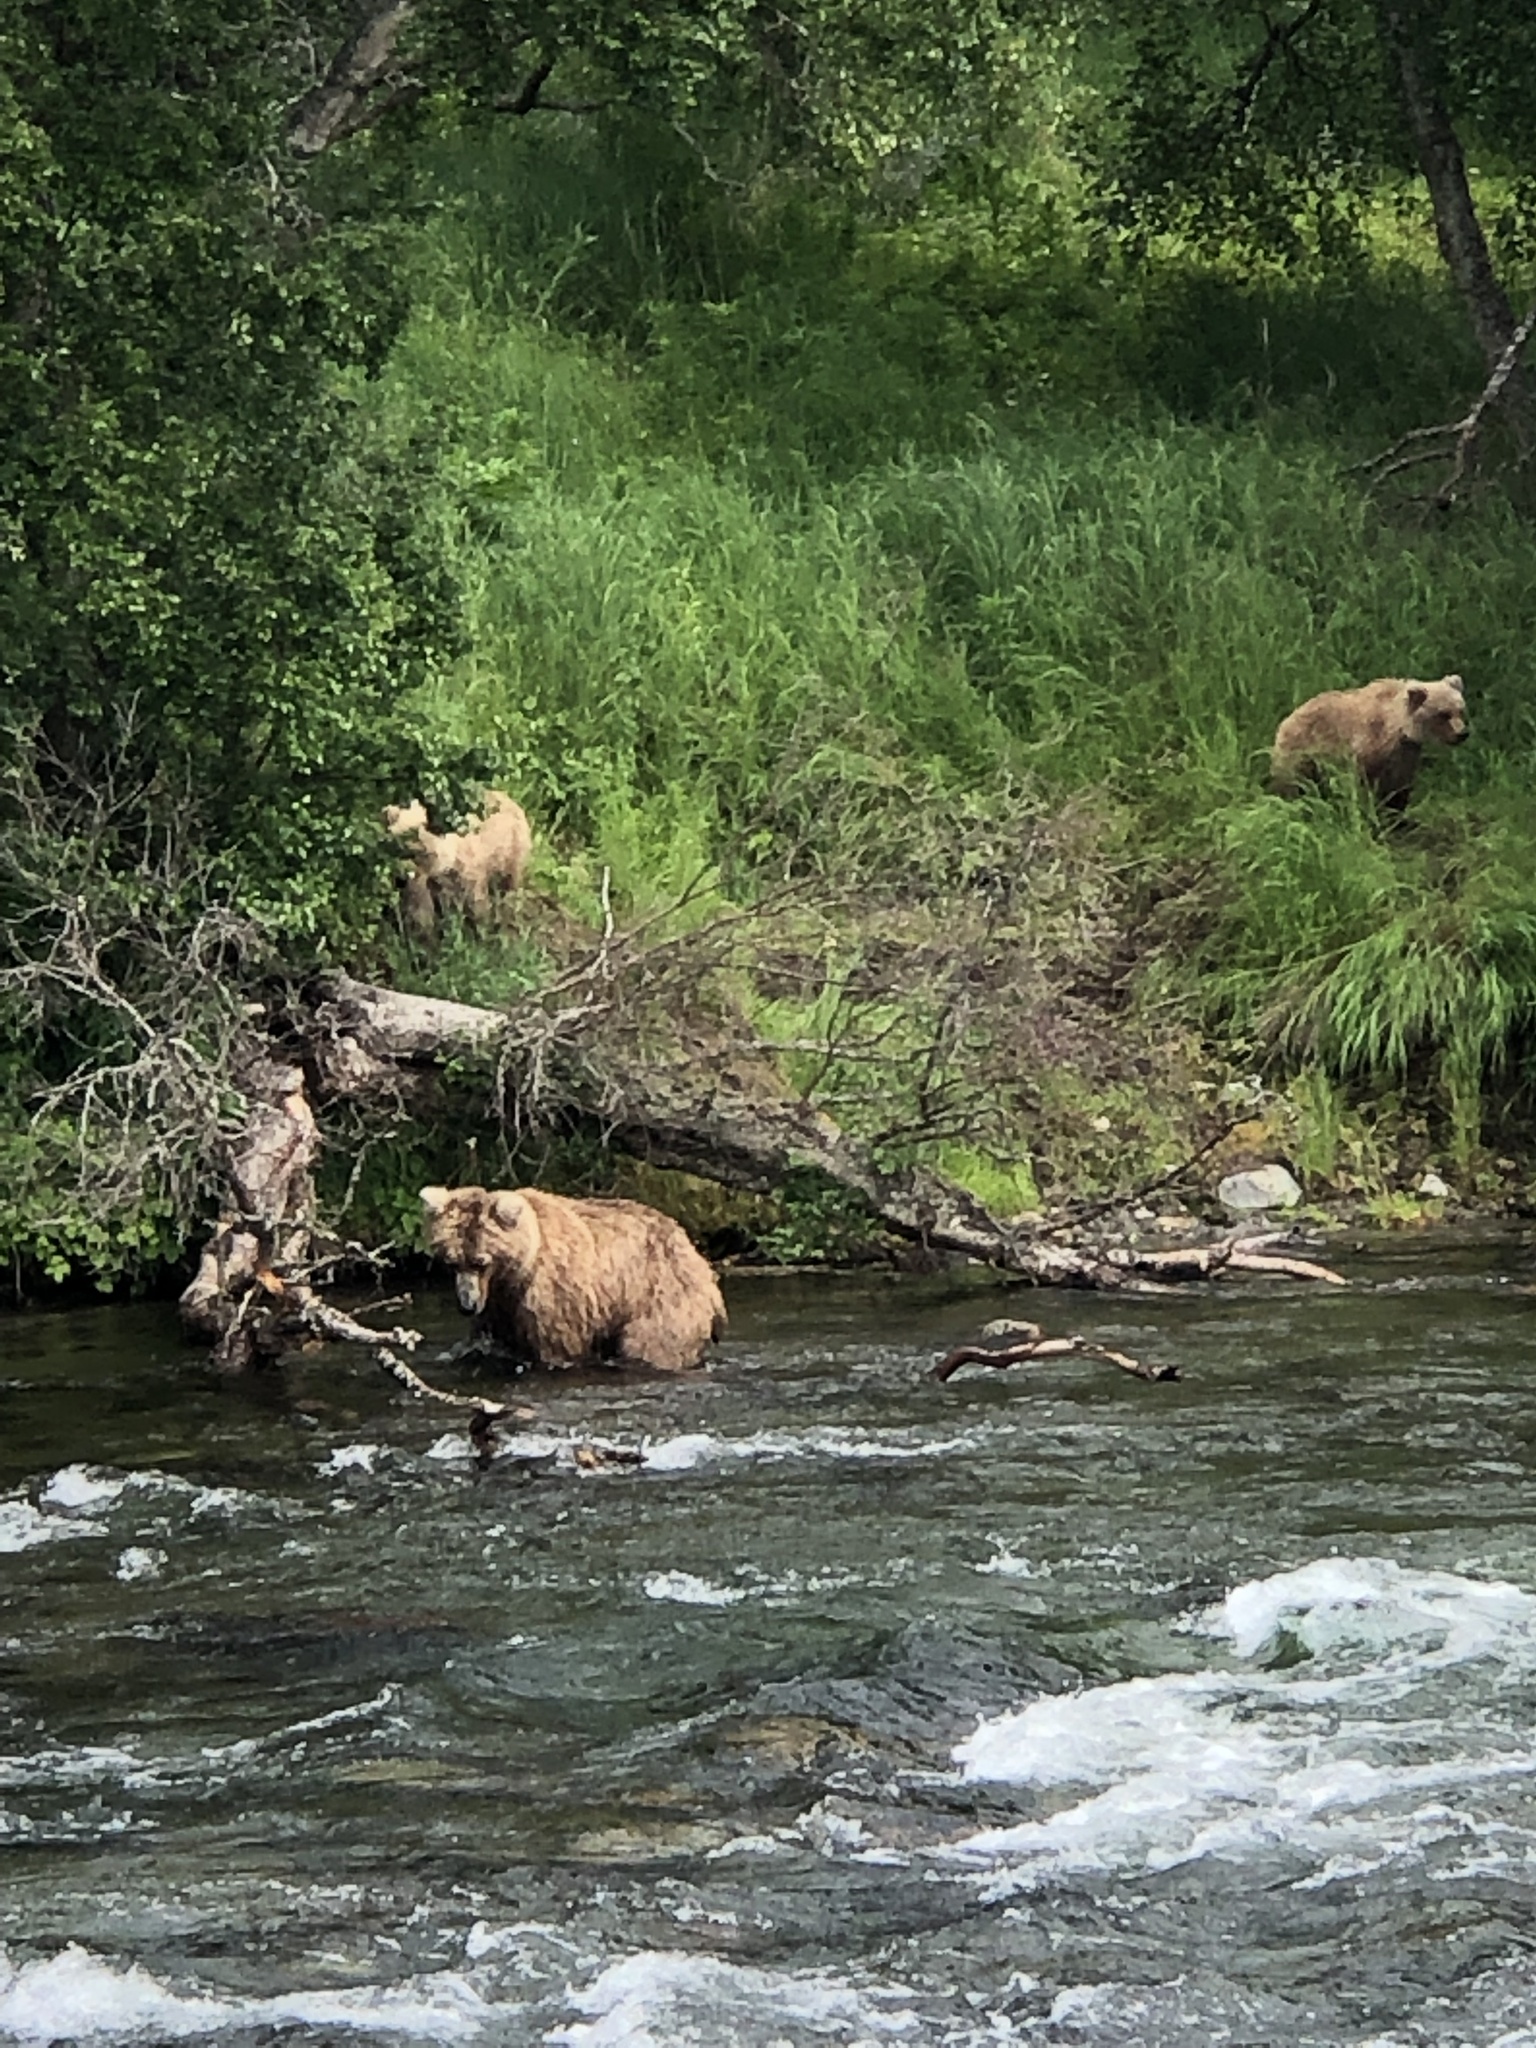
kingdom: Animalia
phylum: Chordata
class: Mammalia
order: Carnivora
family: Ursidae
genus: Ursus
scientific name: Ursus arctos
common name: Brown bear
